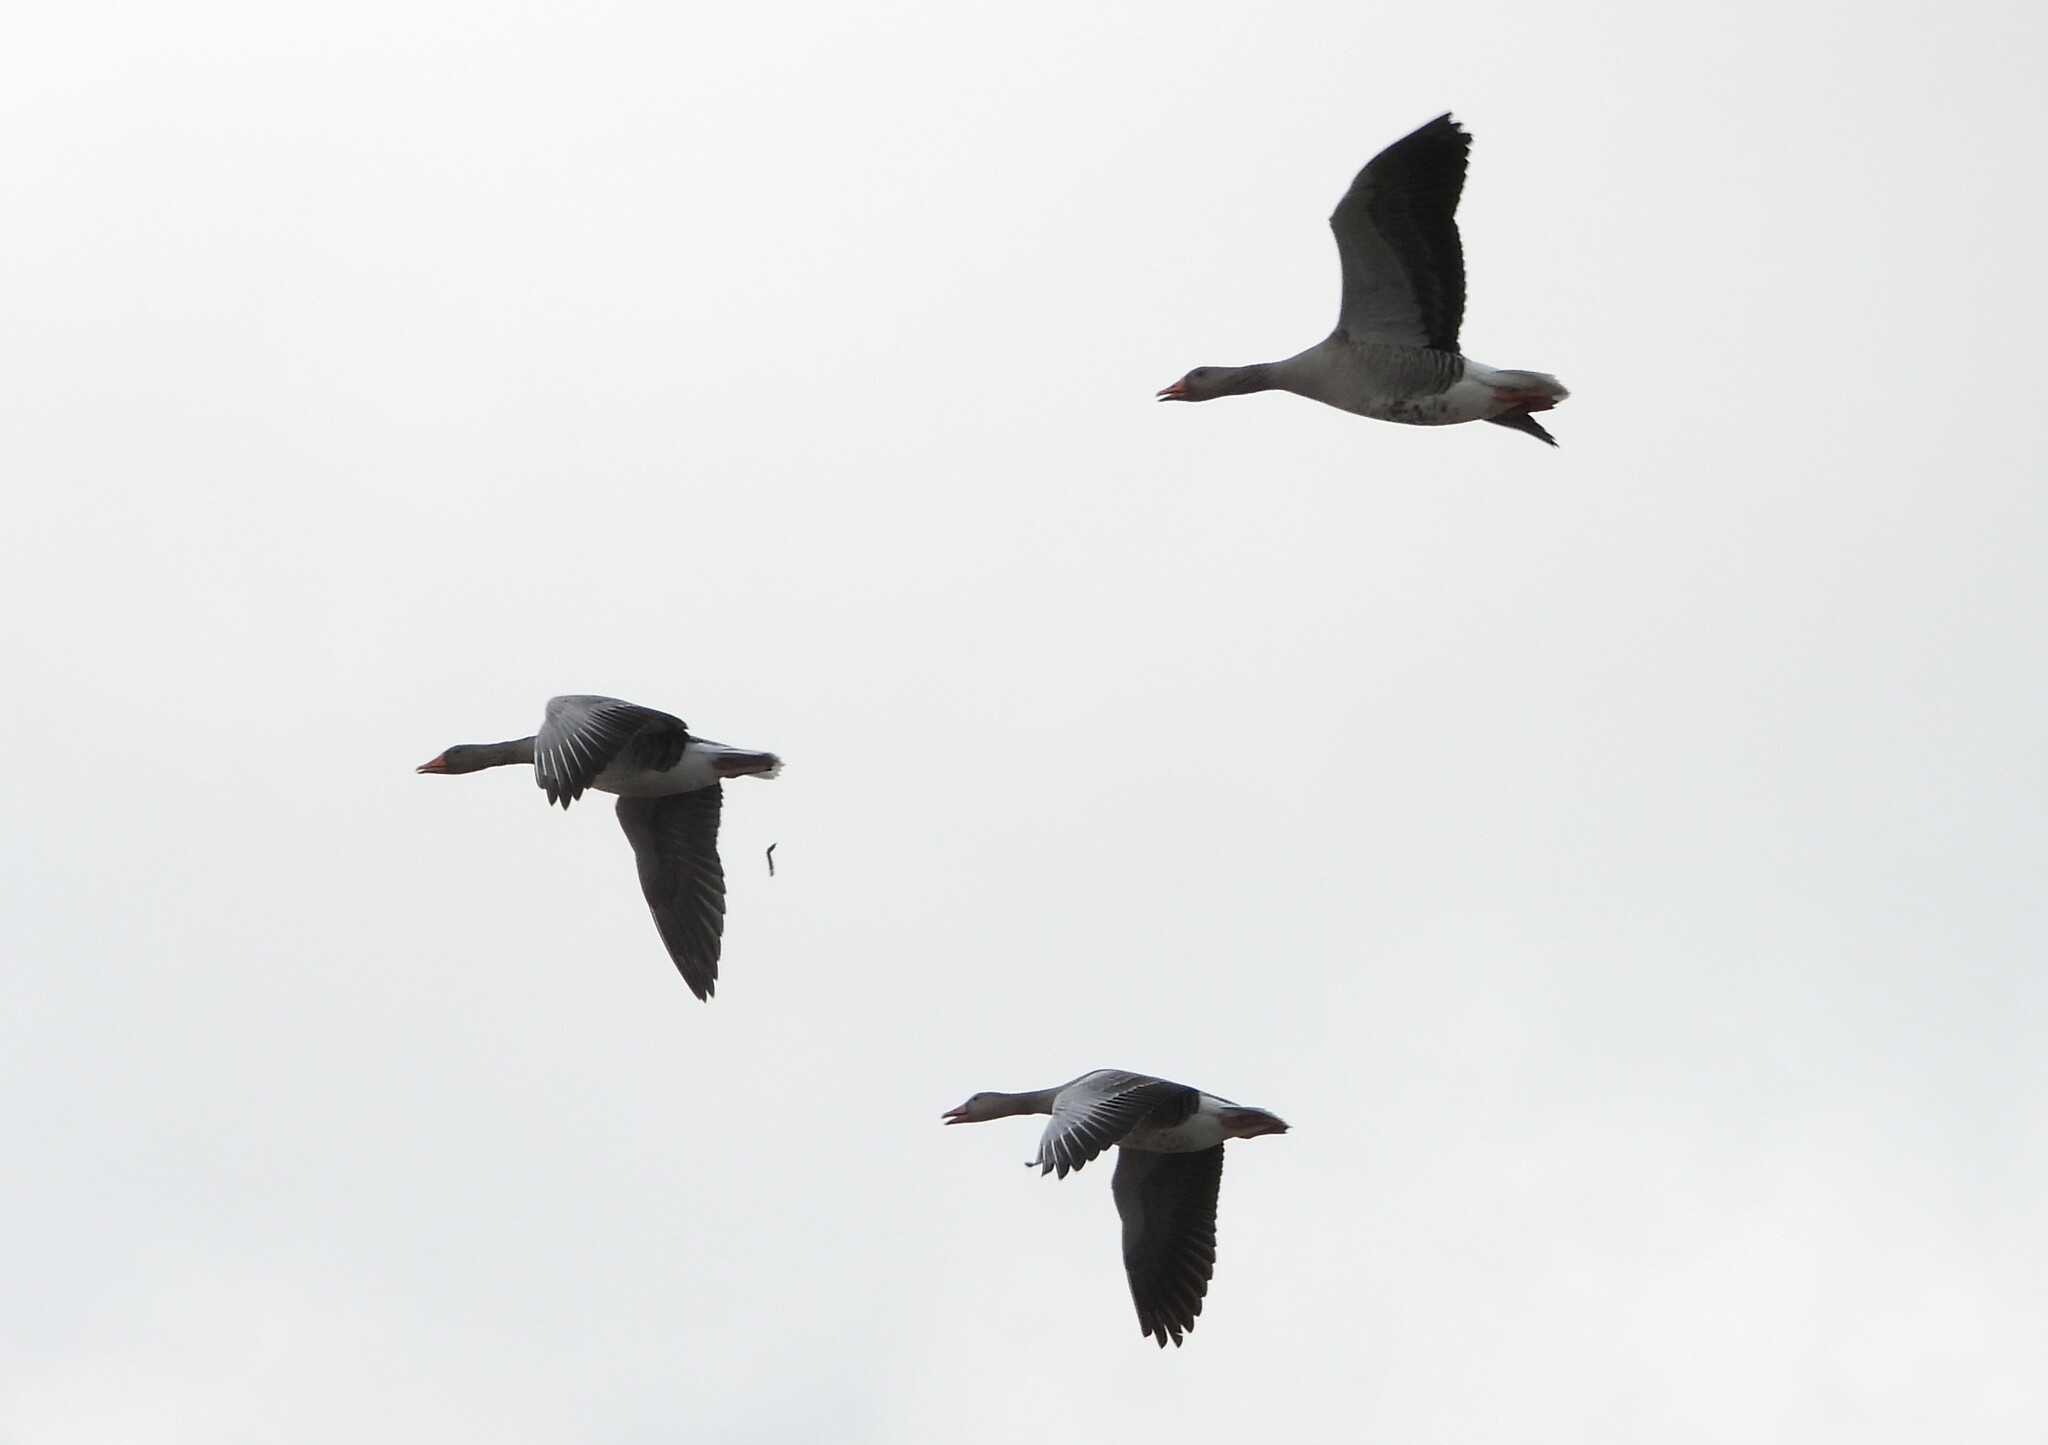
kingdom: Animalia
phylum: Chordata
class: Aves
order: Anseriformes
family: Anatidae
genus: Anser
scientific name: Anser anser
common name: Greylag goose
